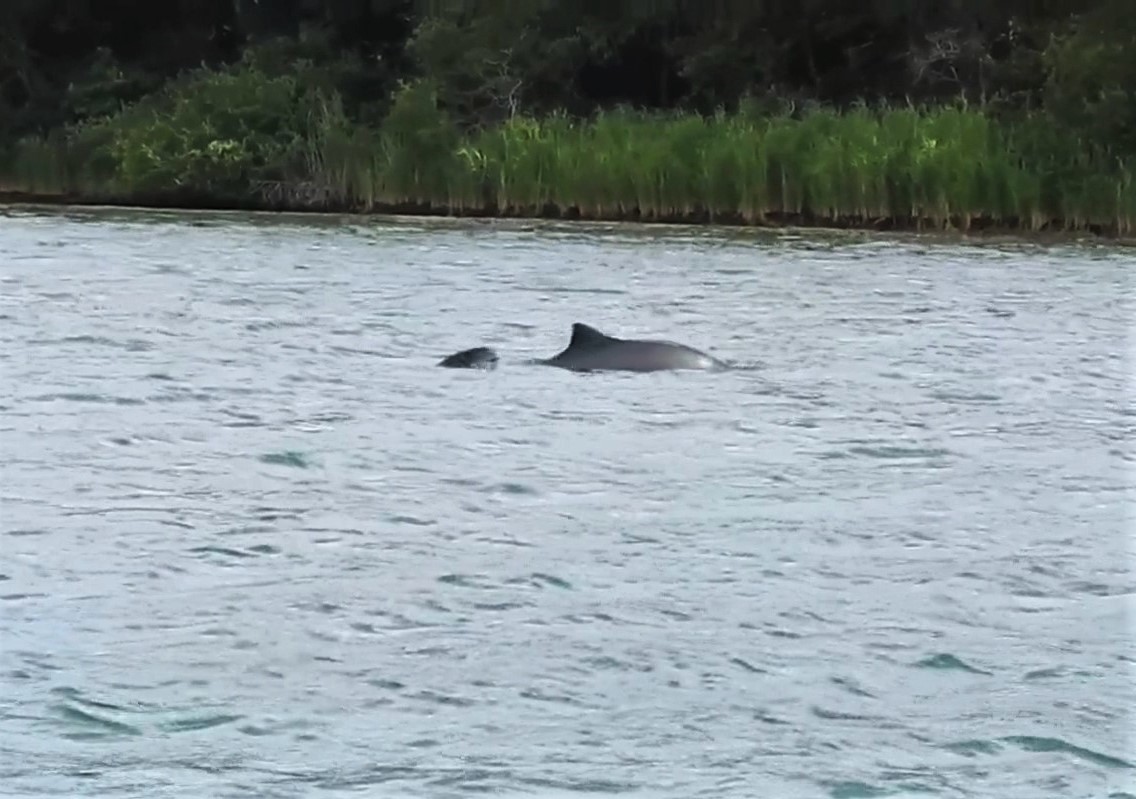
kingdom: Animalia
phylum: Chordata
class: Mammalia
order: Cetacea
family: Phocoenidae
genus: Phocoena
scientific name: Phocoena phocoena
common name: Harbor porpoise
